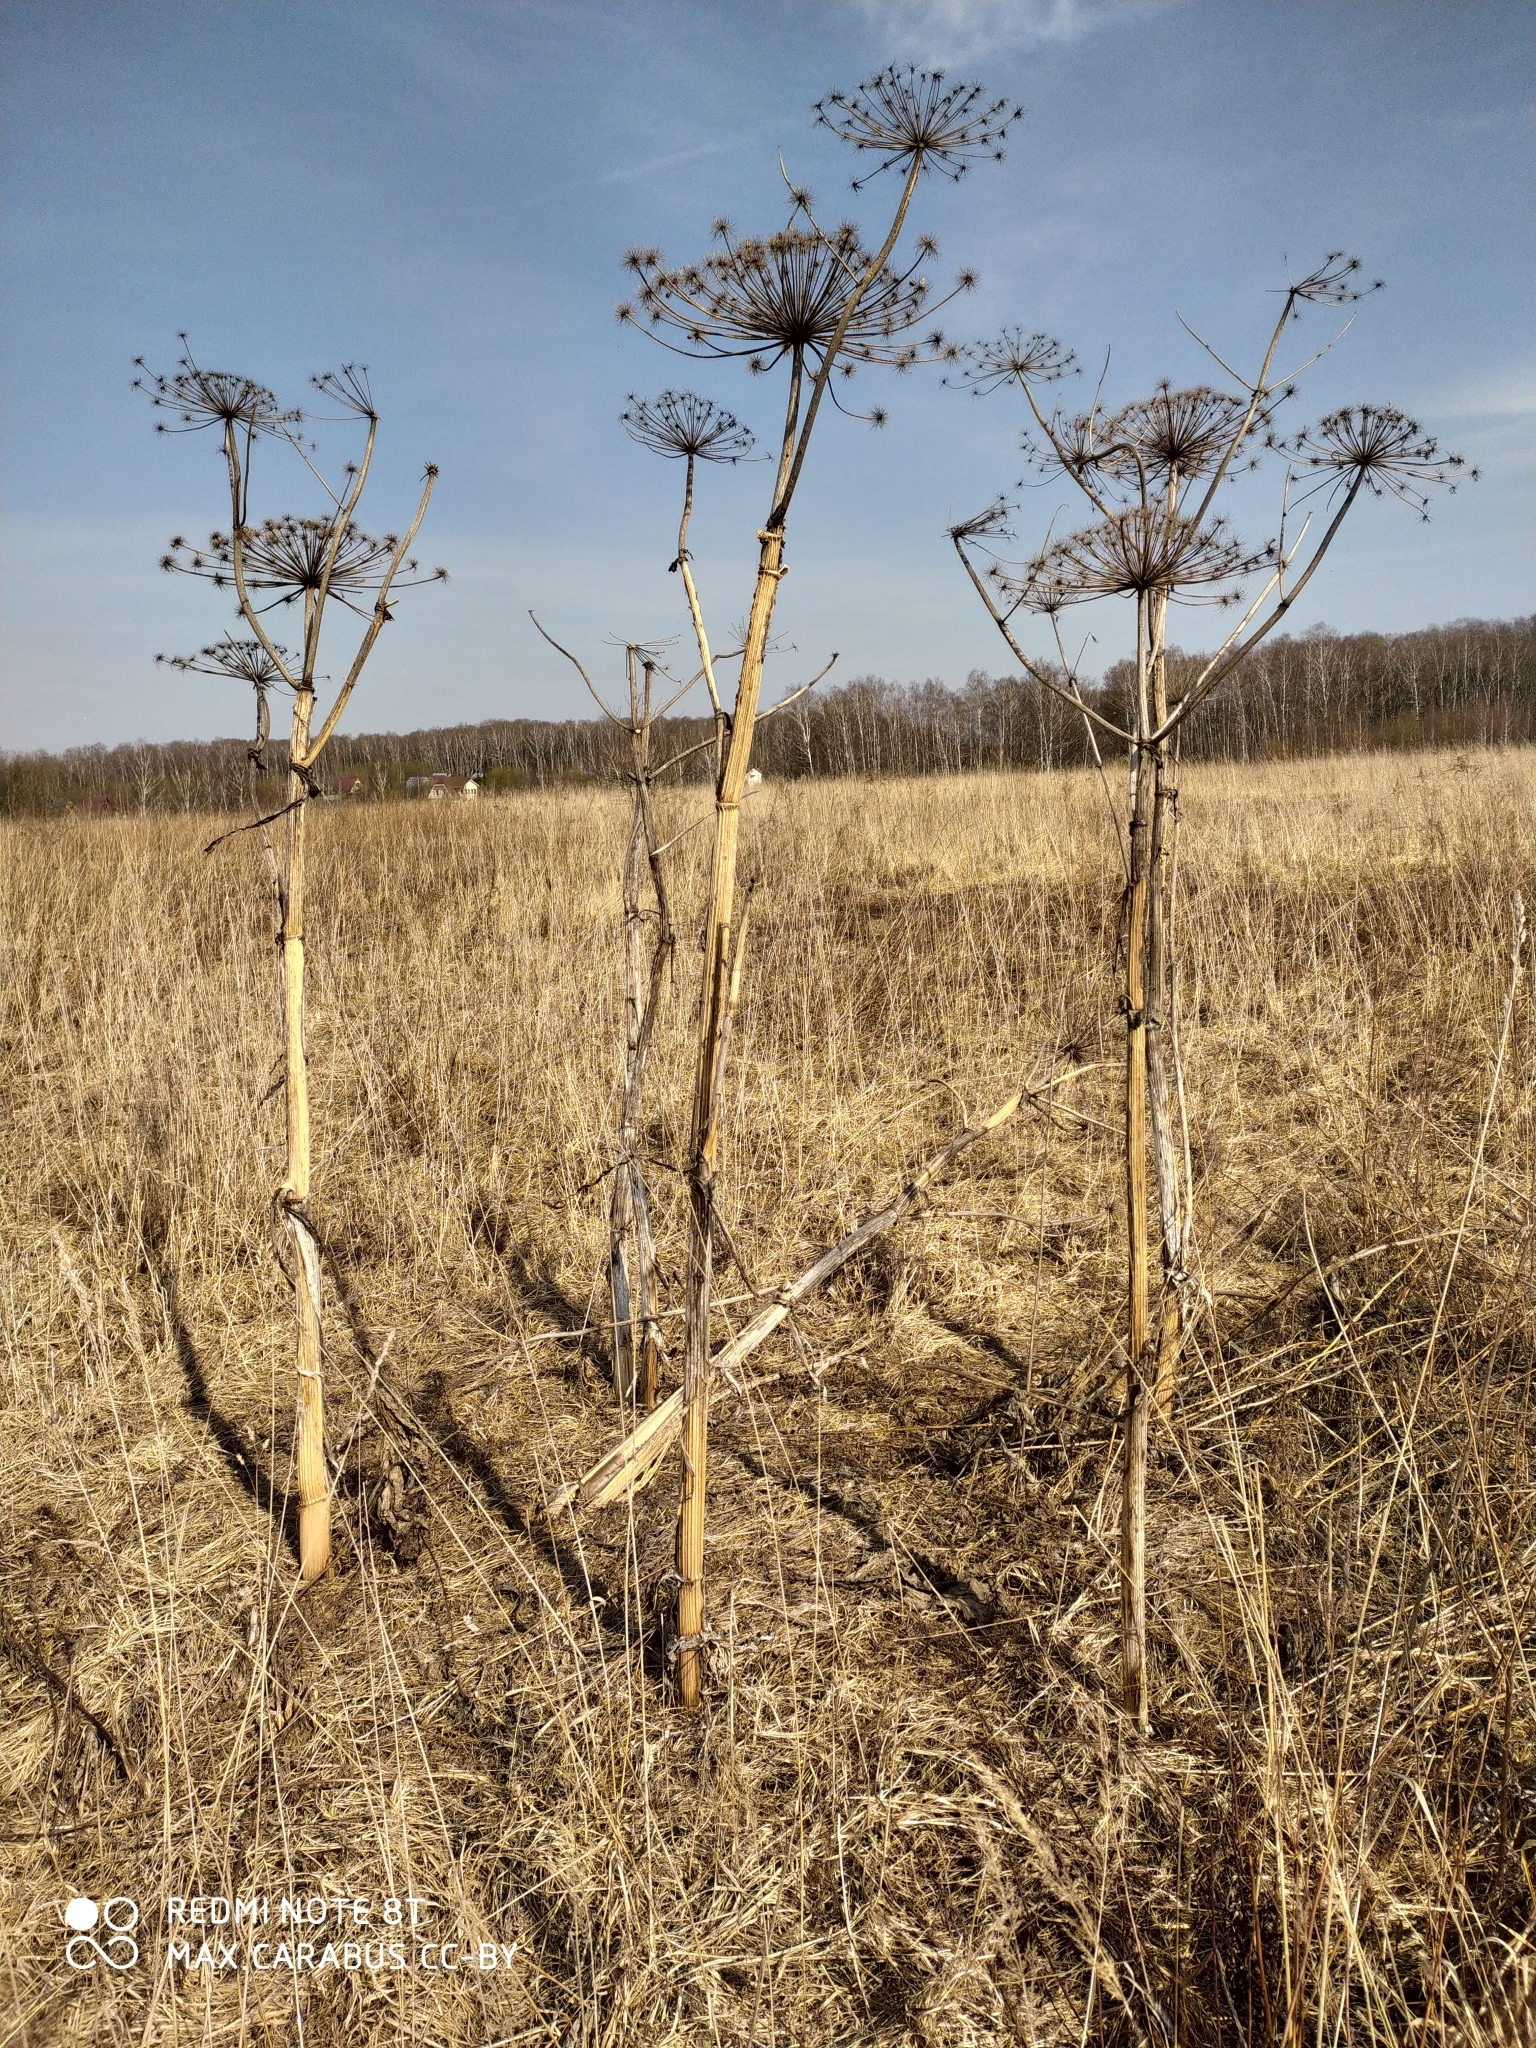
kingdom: Plantae
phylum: Tracheophyta
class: Magnoliopsida
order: Apiales
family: Apiaceae
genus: Heracleum
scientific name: Heracleum sosnowskyi
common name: Sosnowsky's hogweed
